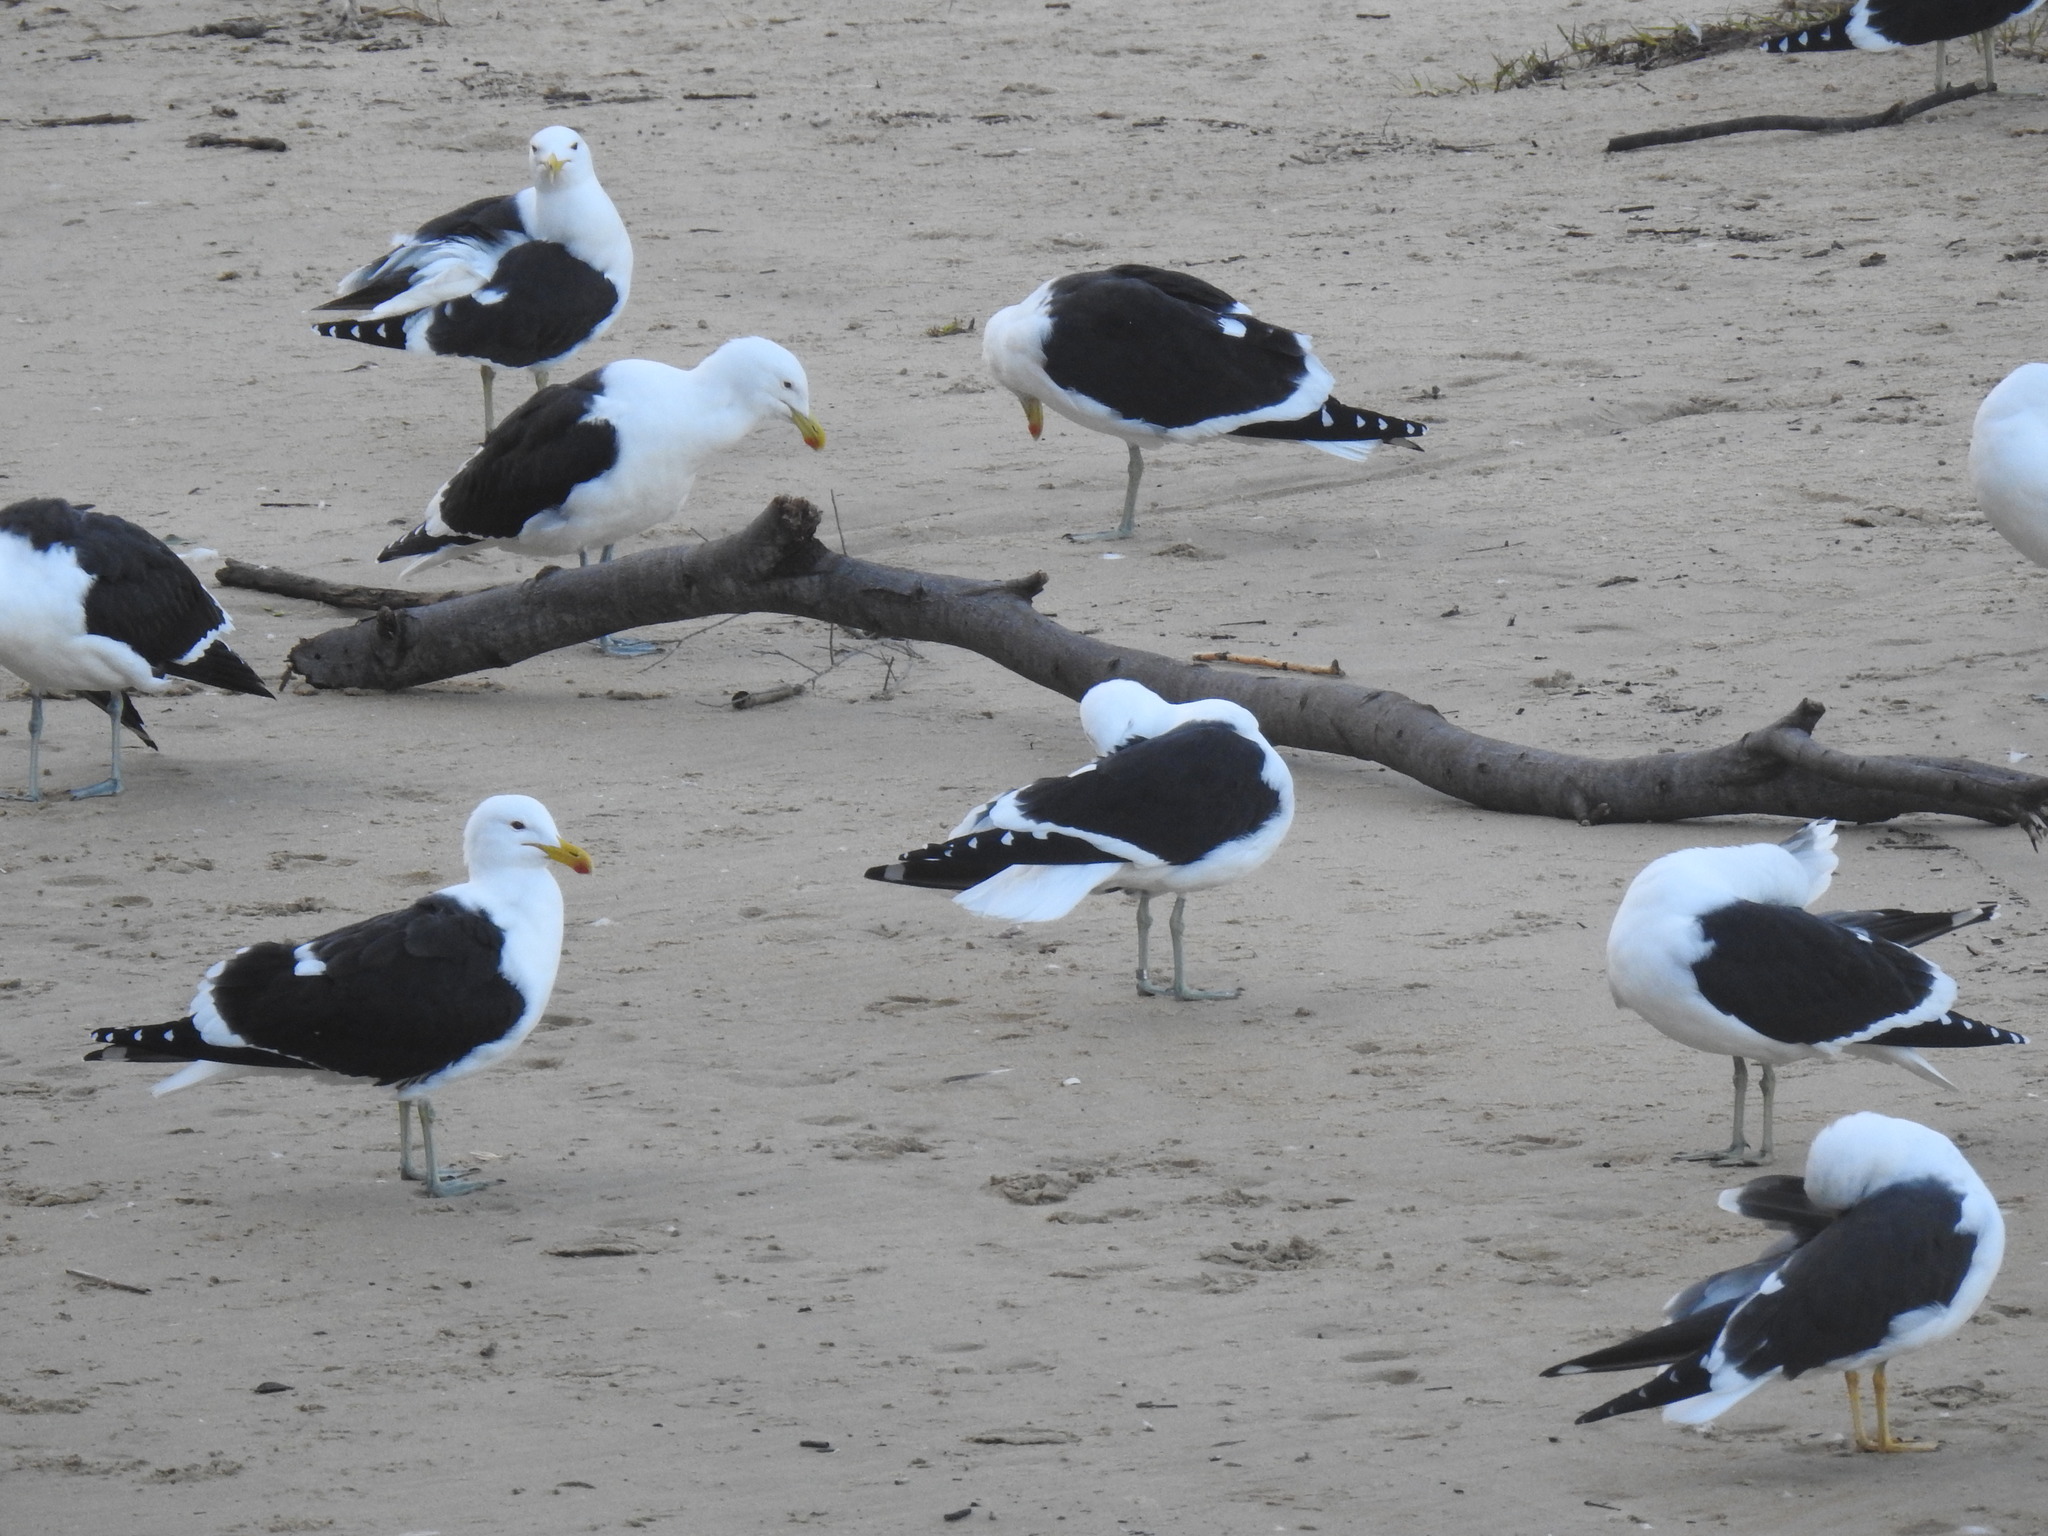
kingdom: Animalia
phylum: Chordata
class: Aves
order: Charadriiformes
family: Laridae
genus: Larus
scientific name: Larus dominicanus
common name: Kelp gull
